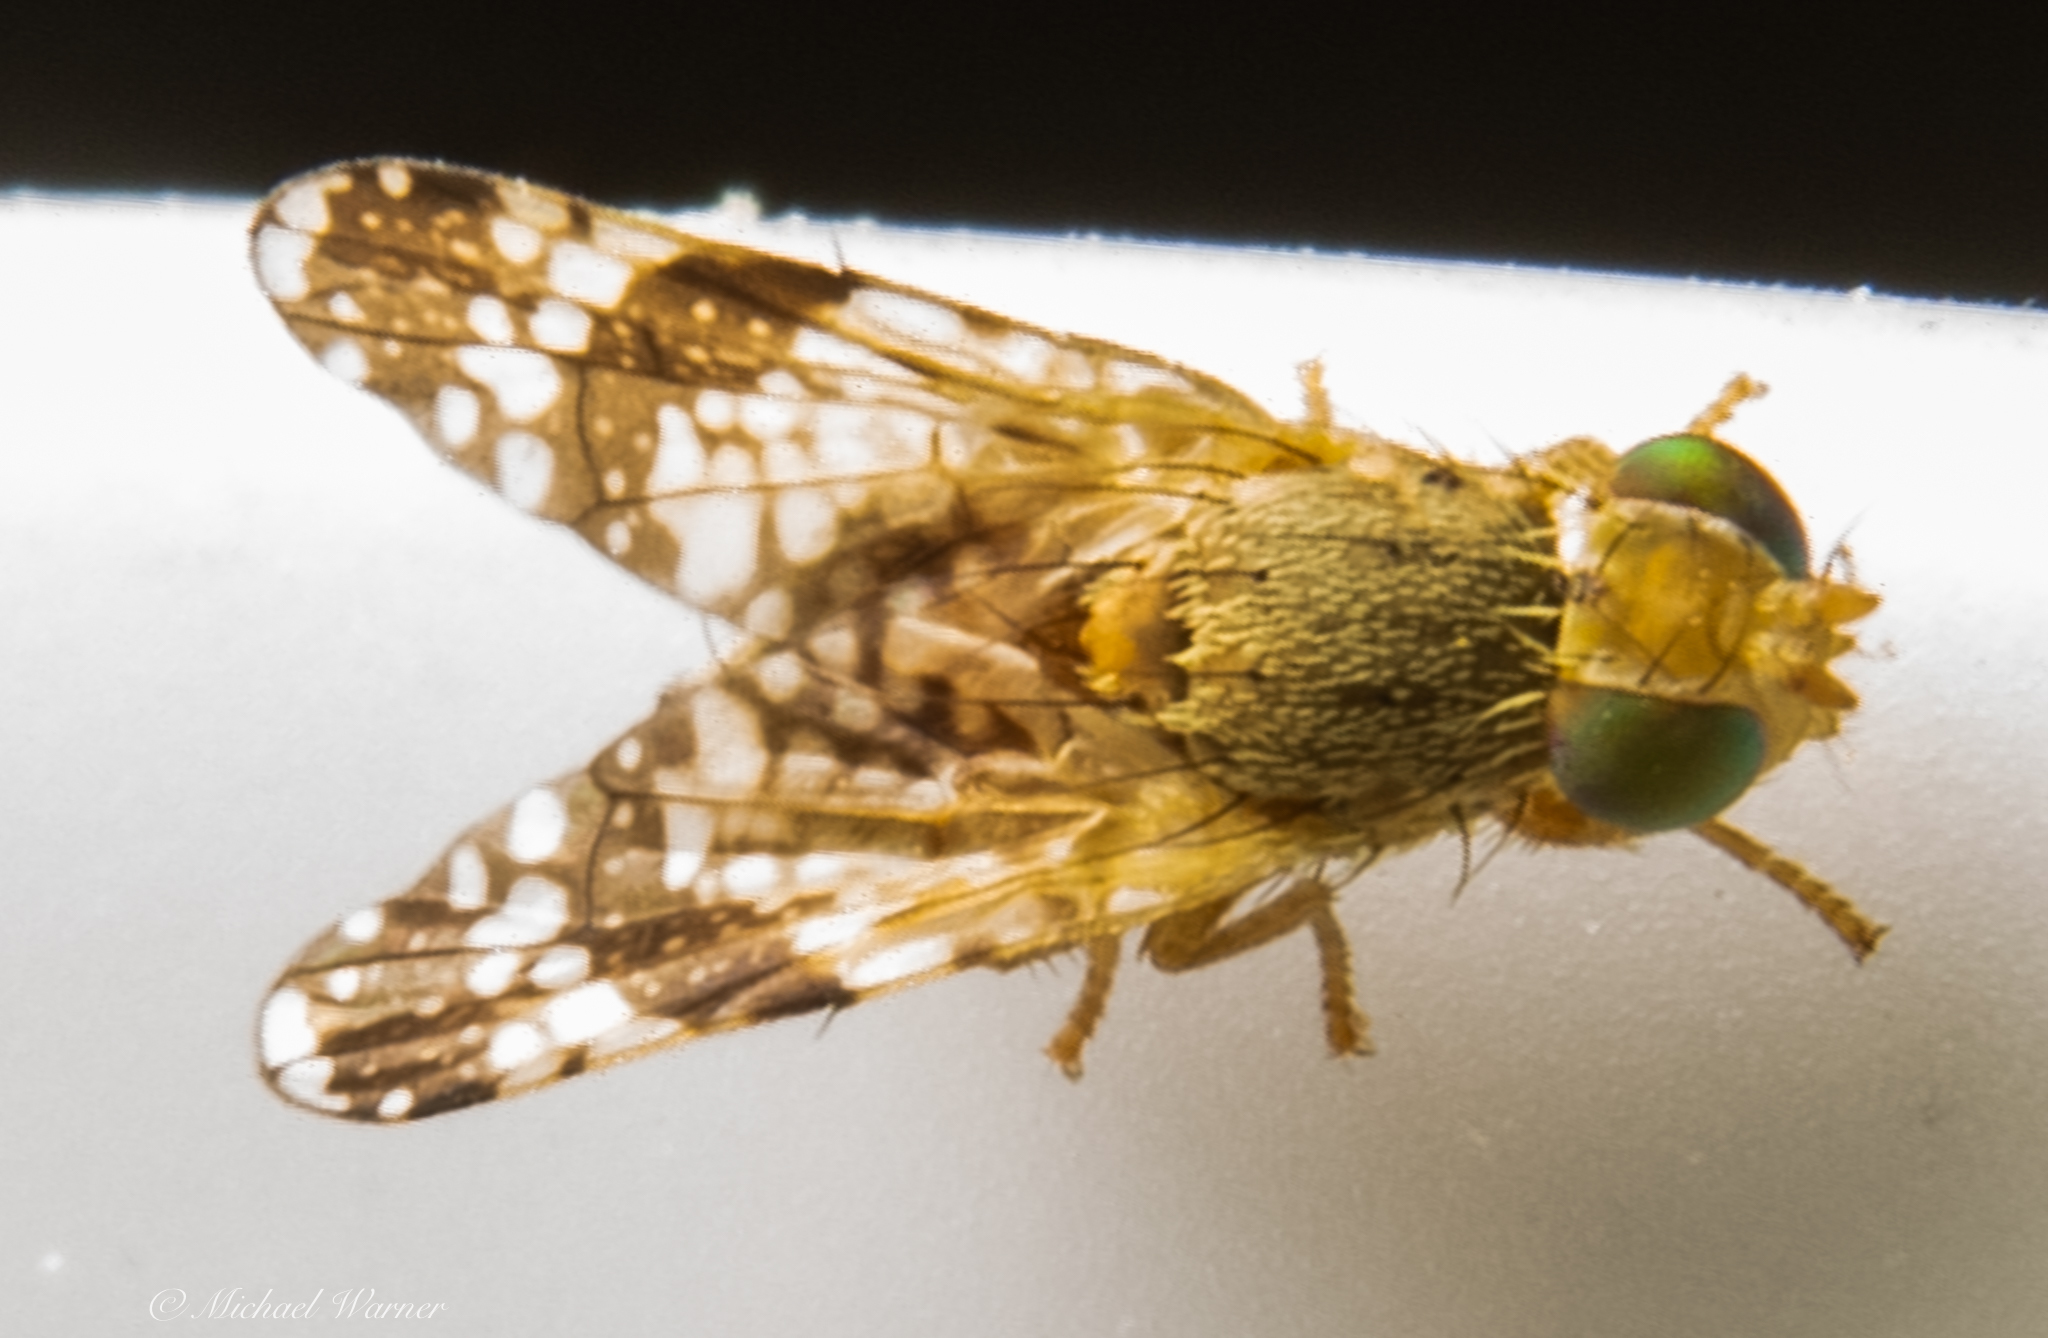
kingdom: Animalia
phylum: Arthropoda
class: Insecta
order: Diptera
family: Tephritidae
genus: Tephritis
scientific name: Tephritis californica
